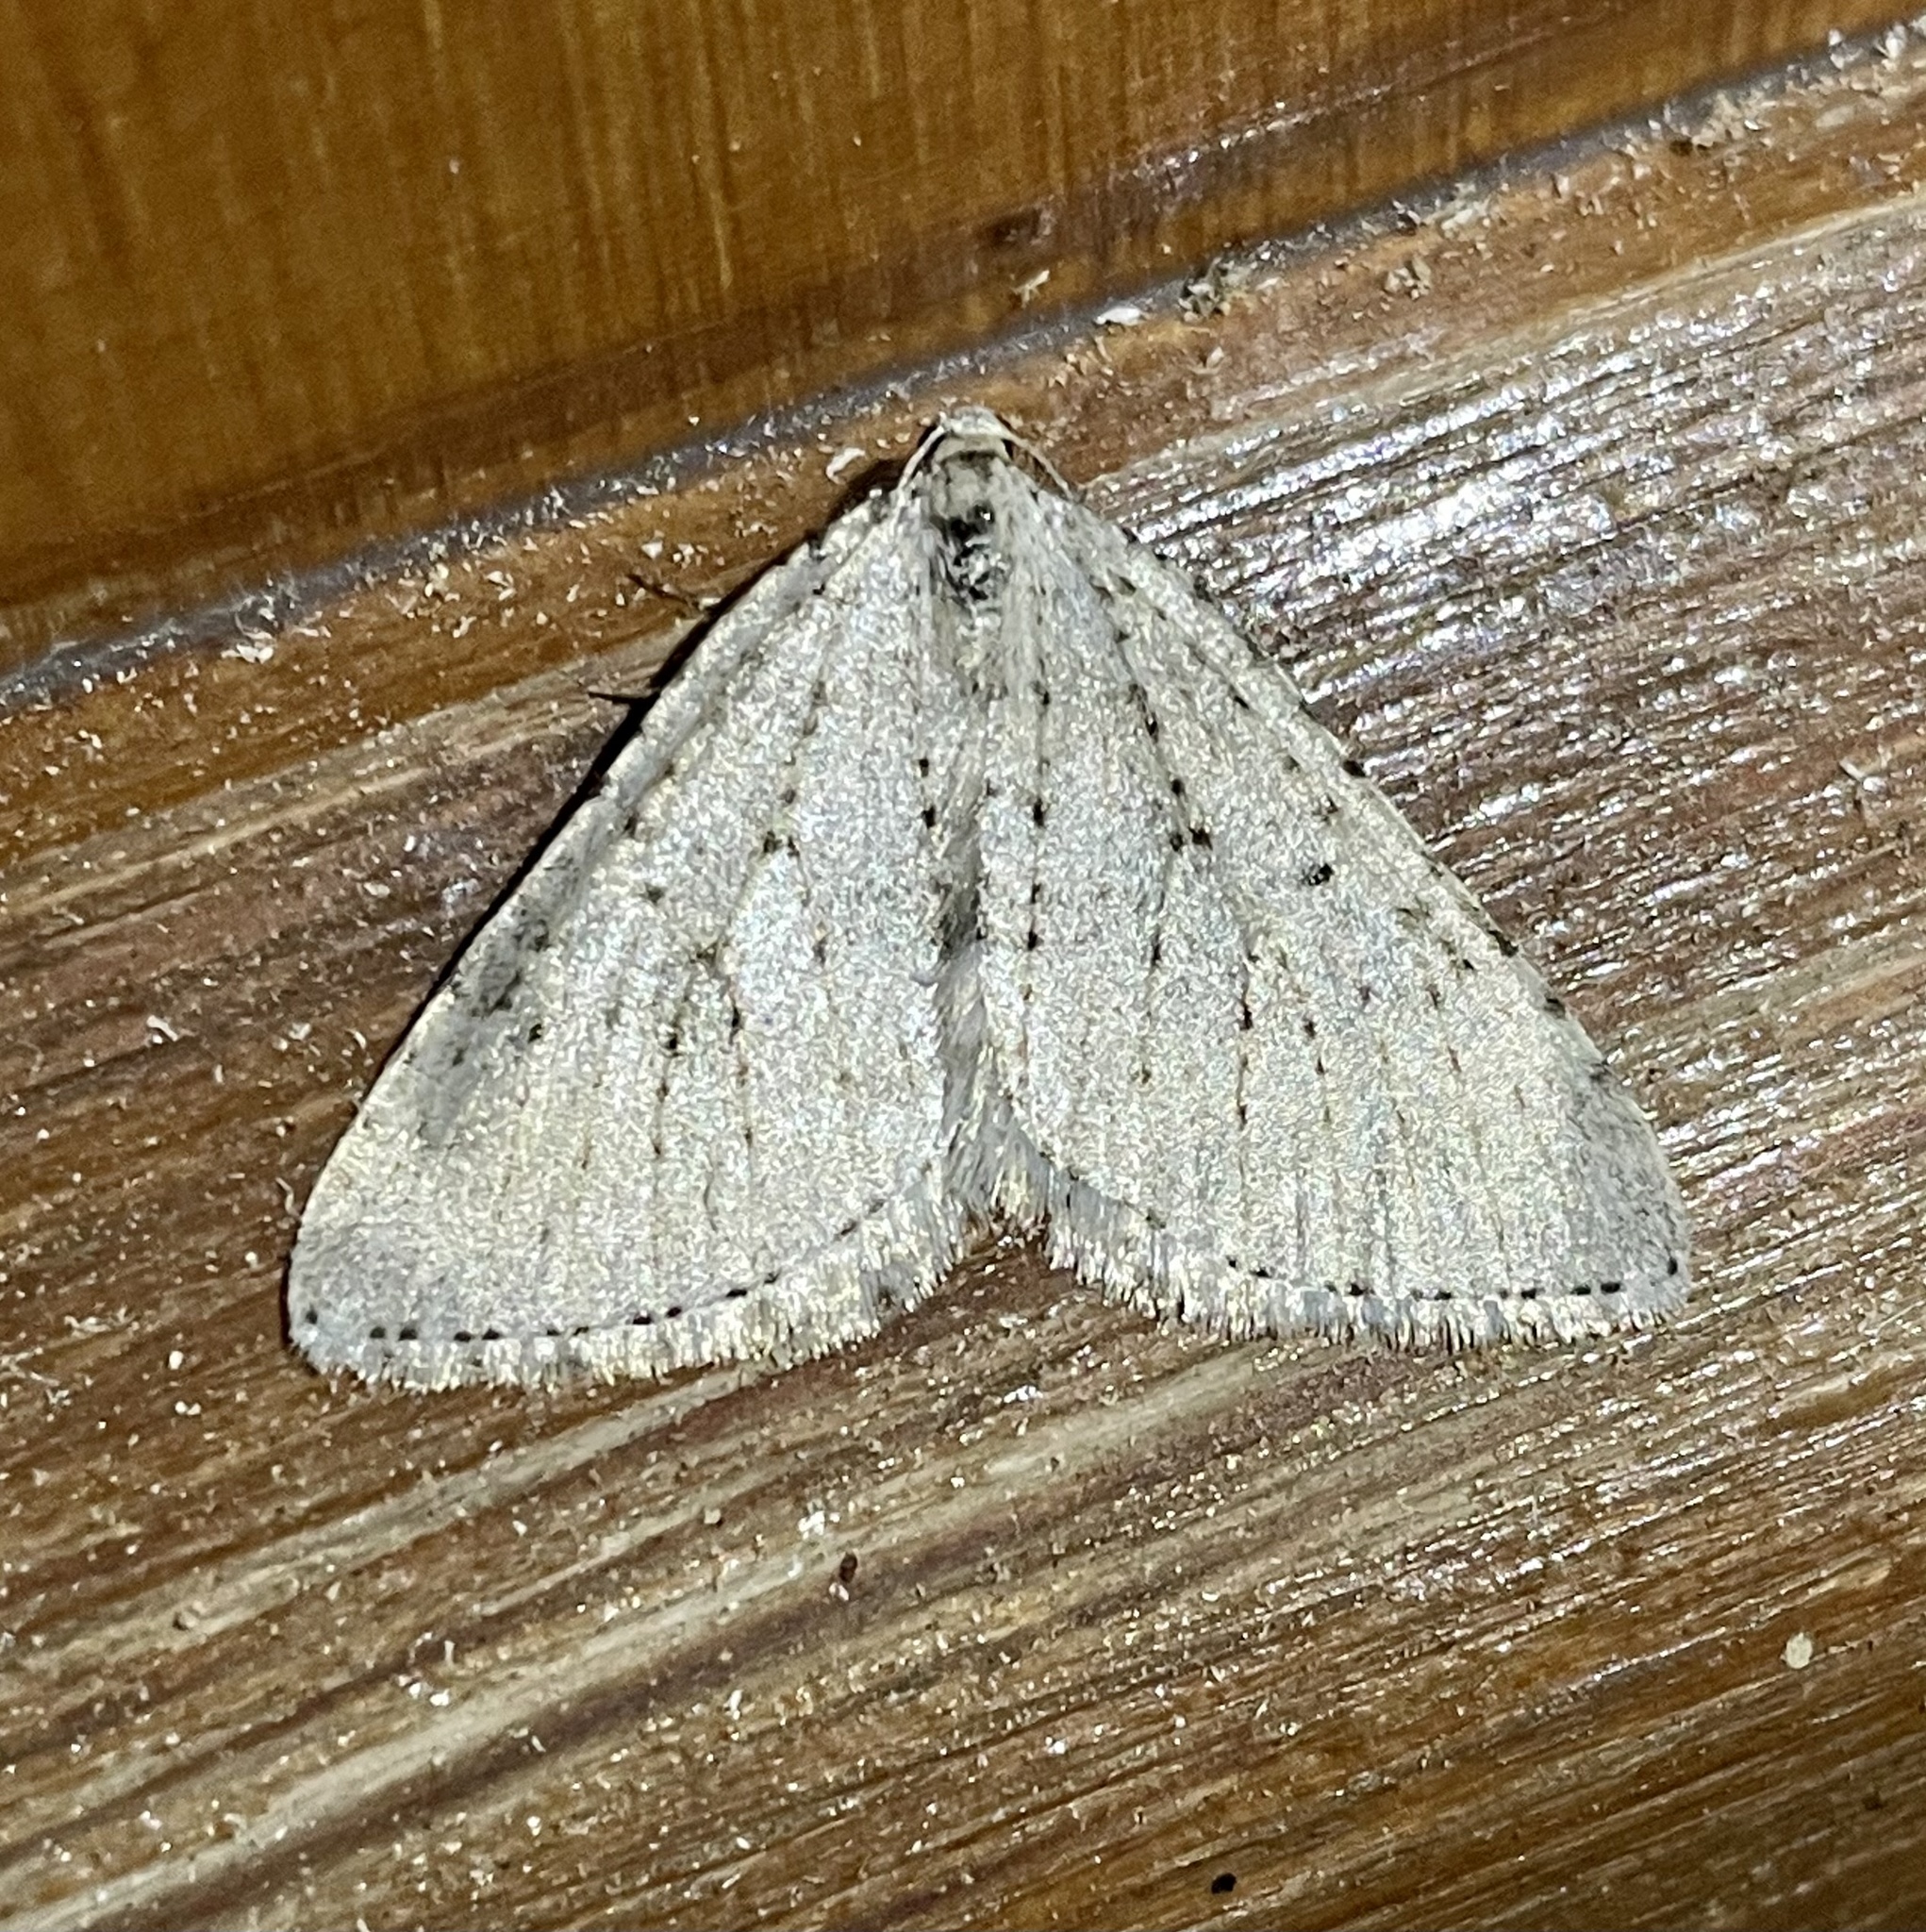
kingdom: Animalia
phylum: Arthropoda
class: Insecta
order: Lepidoptera
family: Geometridae
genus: Colostygia
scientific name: Colostygia multistrigaria
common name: Mottled grey
